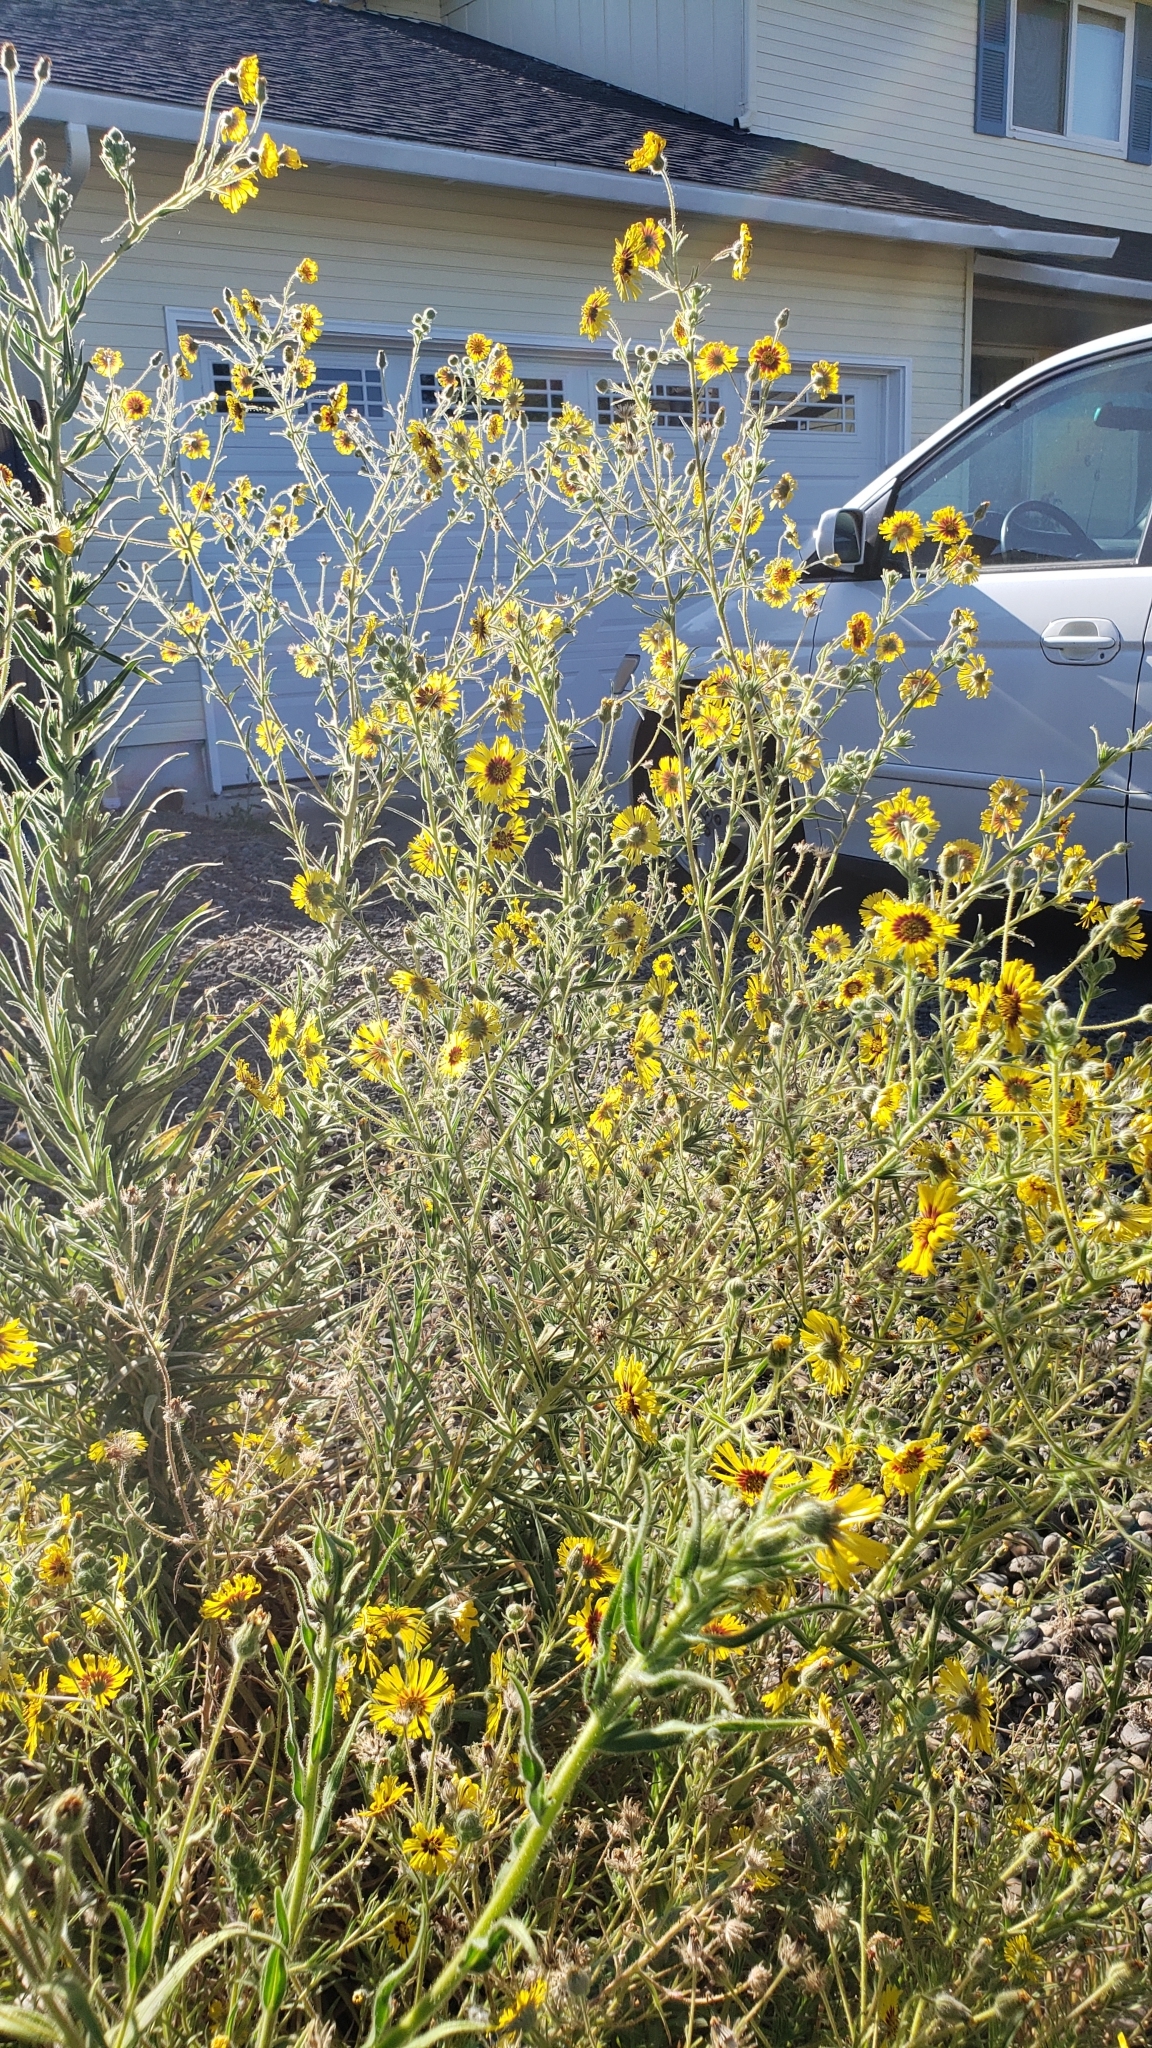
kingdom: Plantae
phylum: Tracheophyta
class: Magnoliopsida
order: Asterales
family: Asteraceae
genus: Madia
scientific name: Madia elegans
